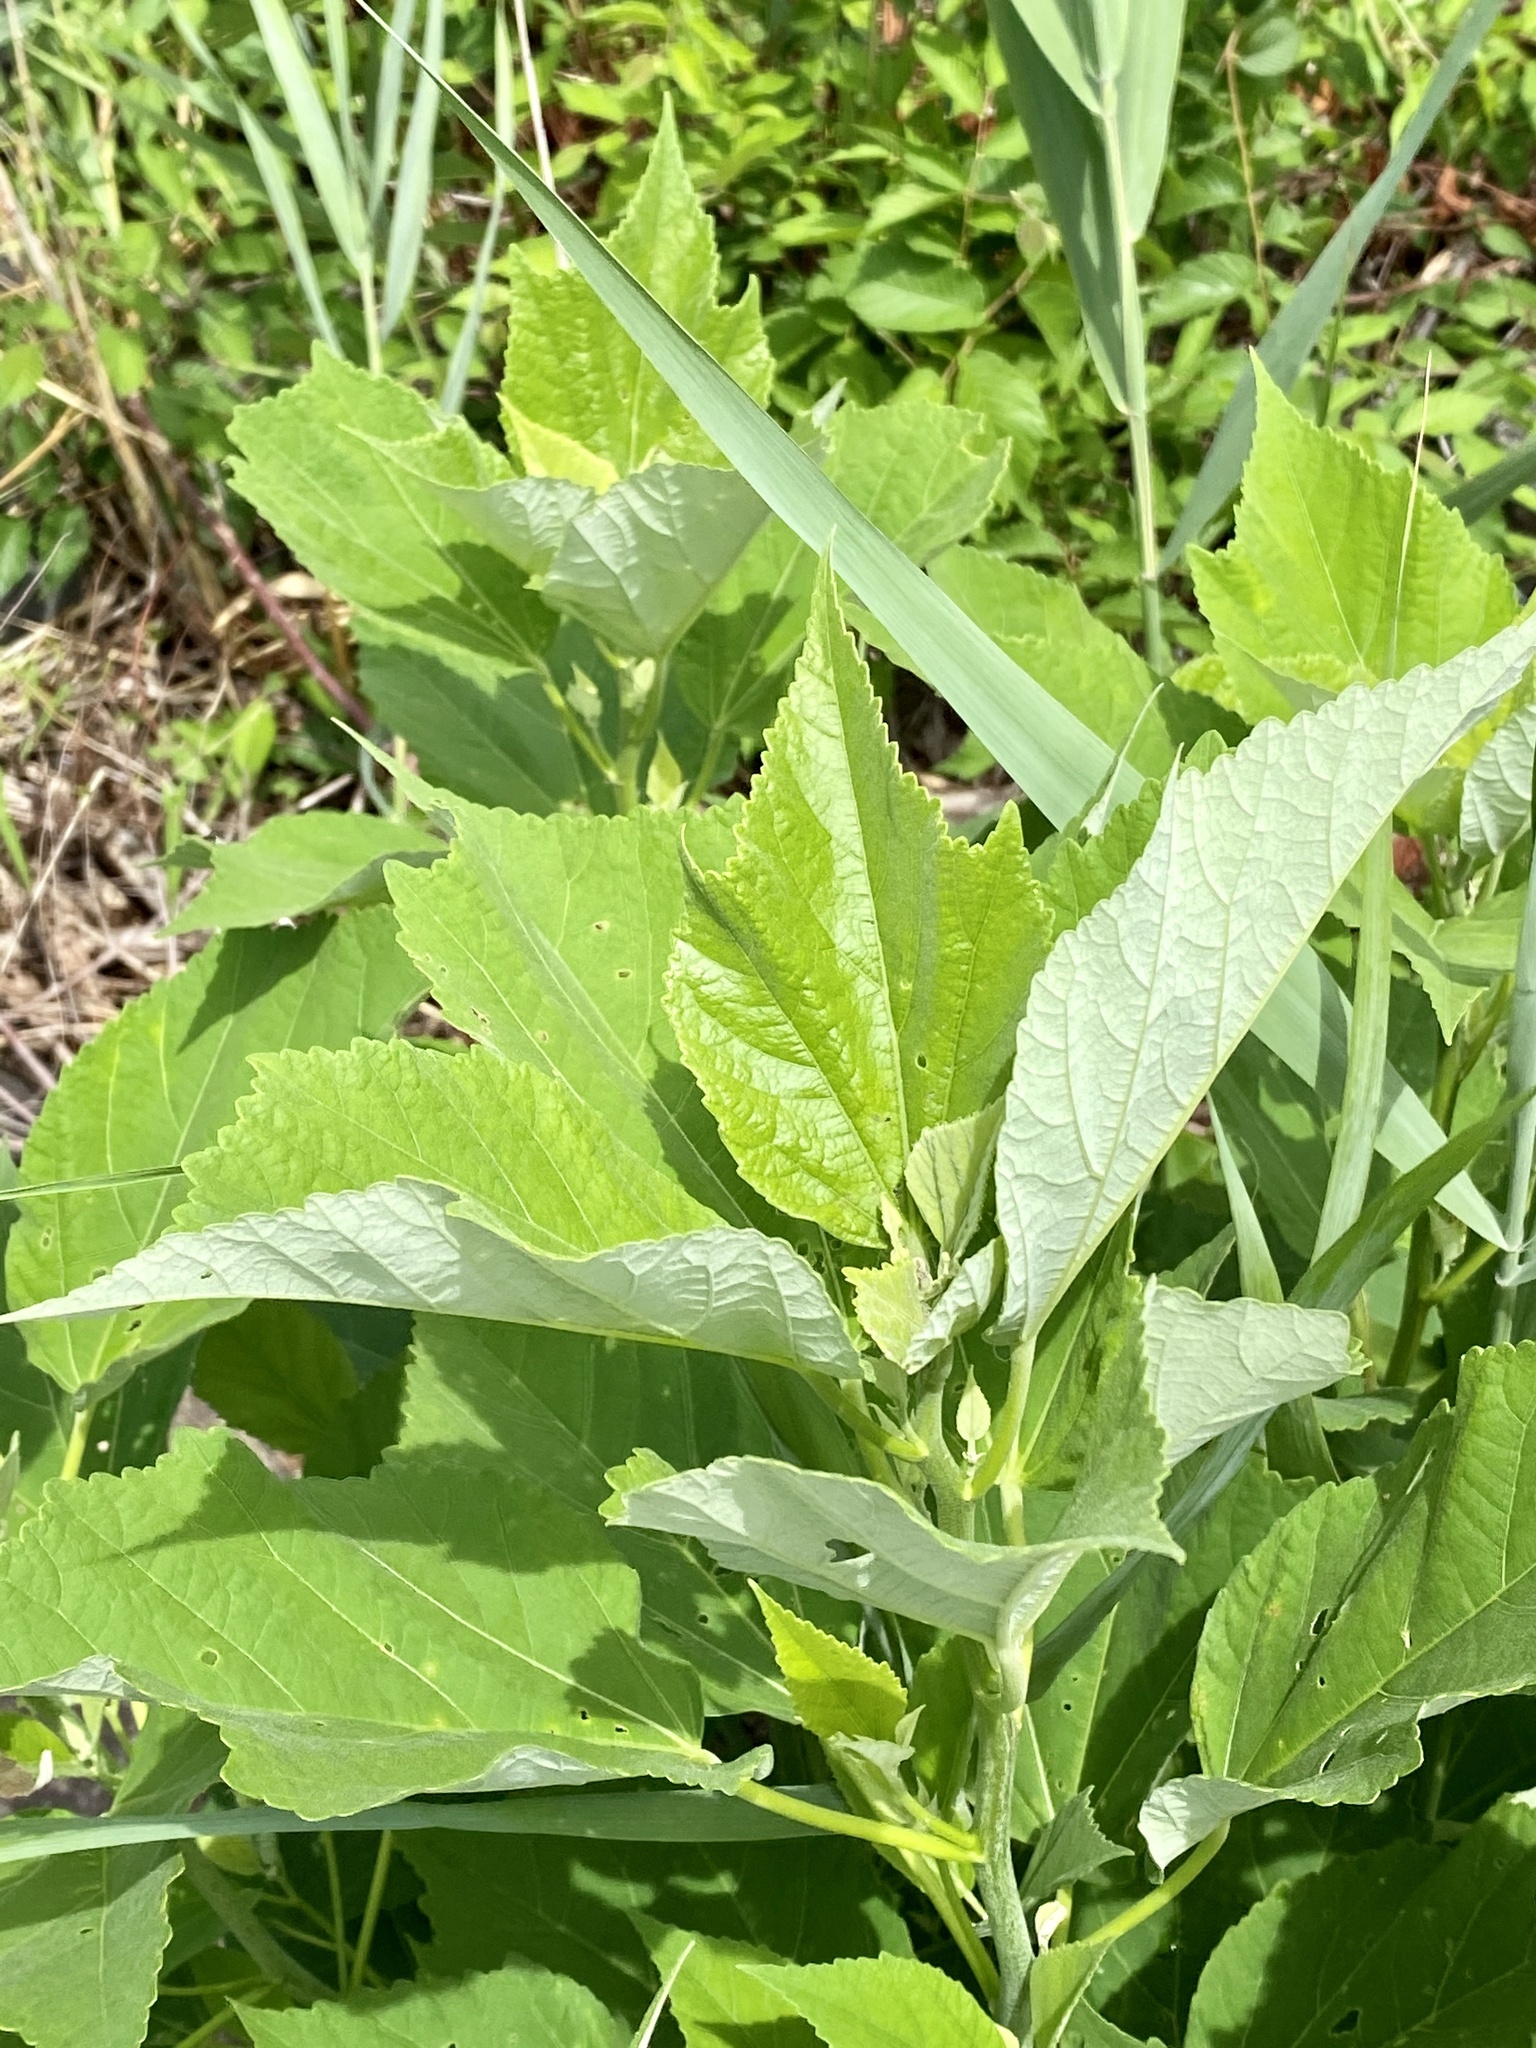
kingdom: Plantae
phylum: Tracheophyta
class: Magnoliopsida
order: Malvales
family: Malvaceae
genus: Hibiscus
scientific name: Hibiscus moscheutos
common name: Common rose-mallow
